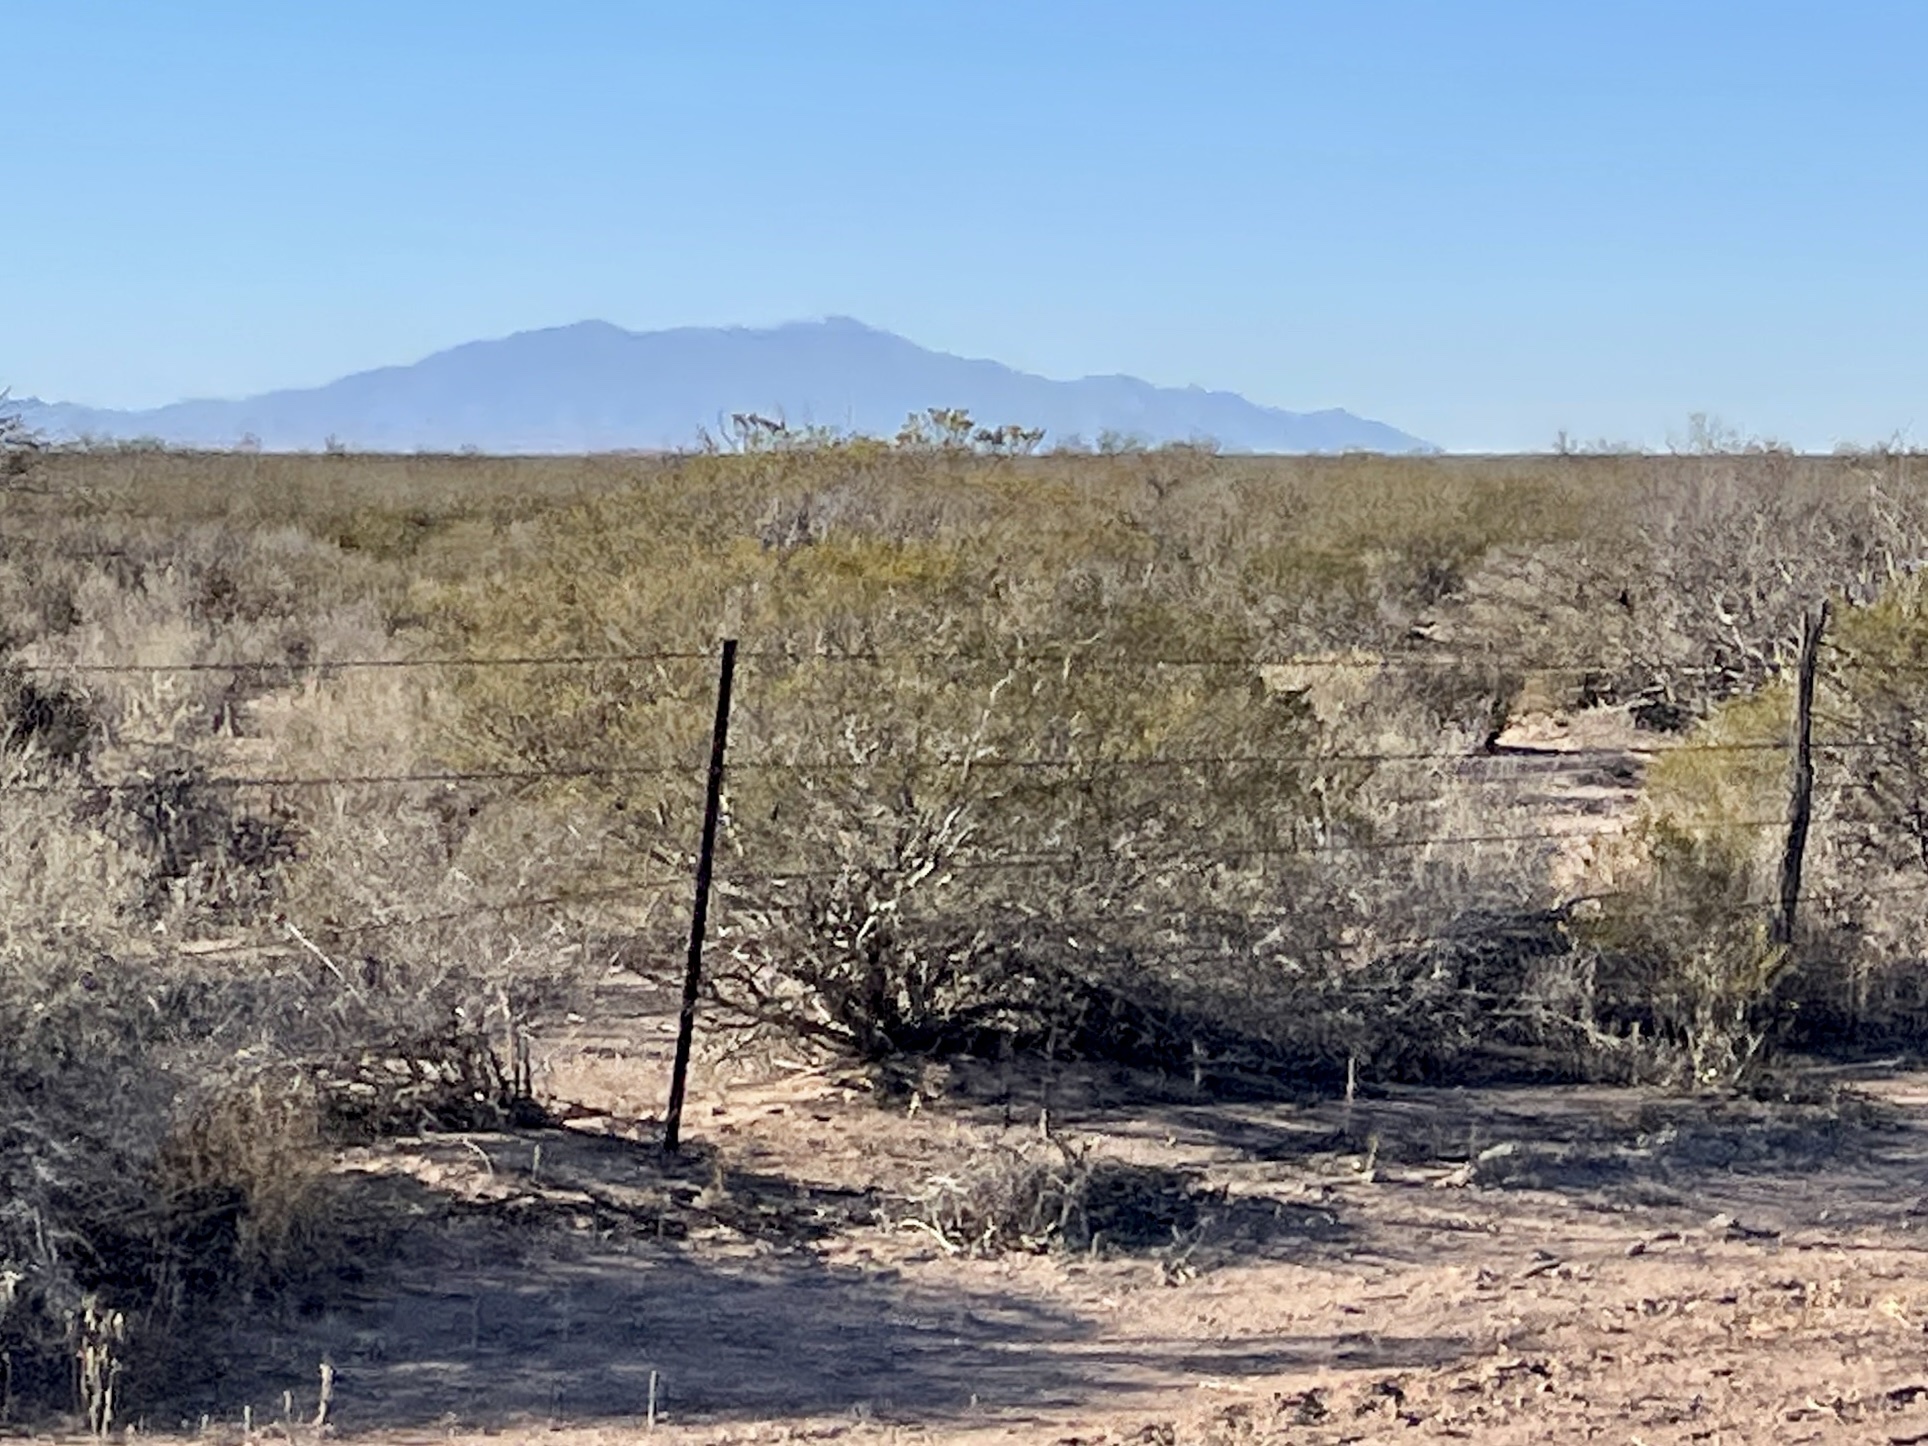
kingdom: Plantae
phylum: Tracheophyta
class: Magnoliopsida
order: Zygophyllales
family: Zygophyllaceae
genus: Larrea
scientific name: Larrea tridentata
